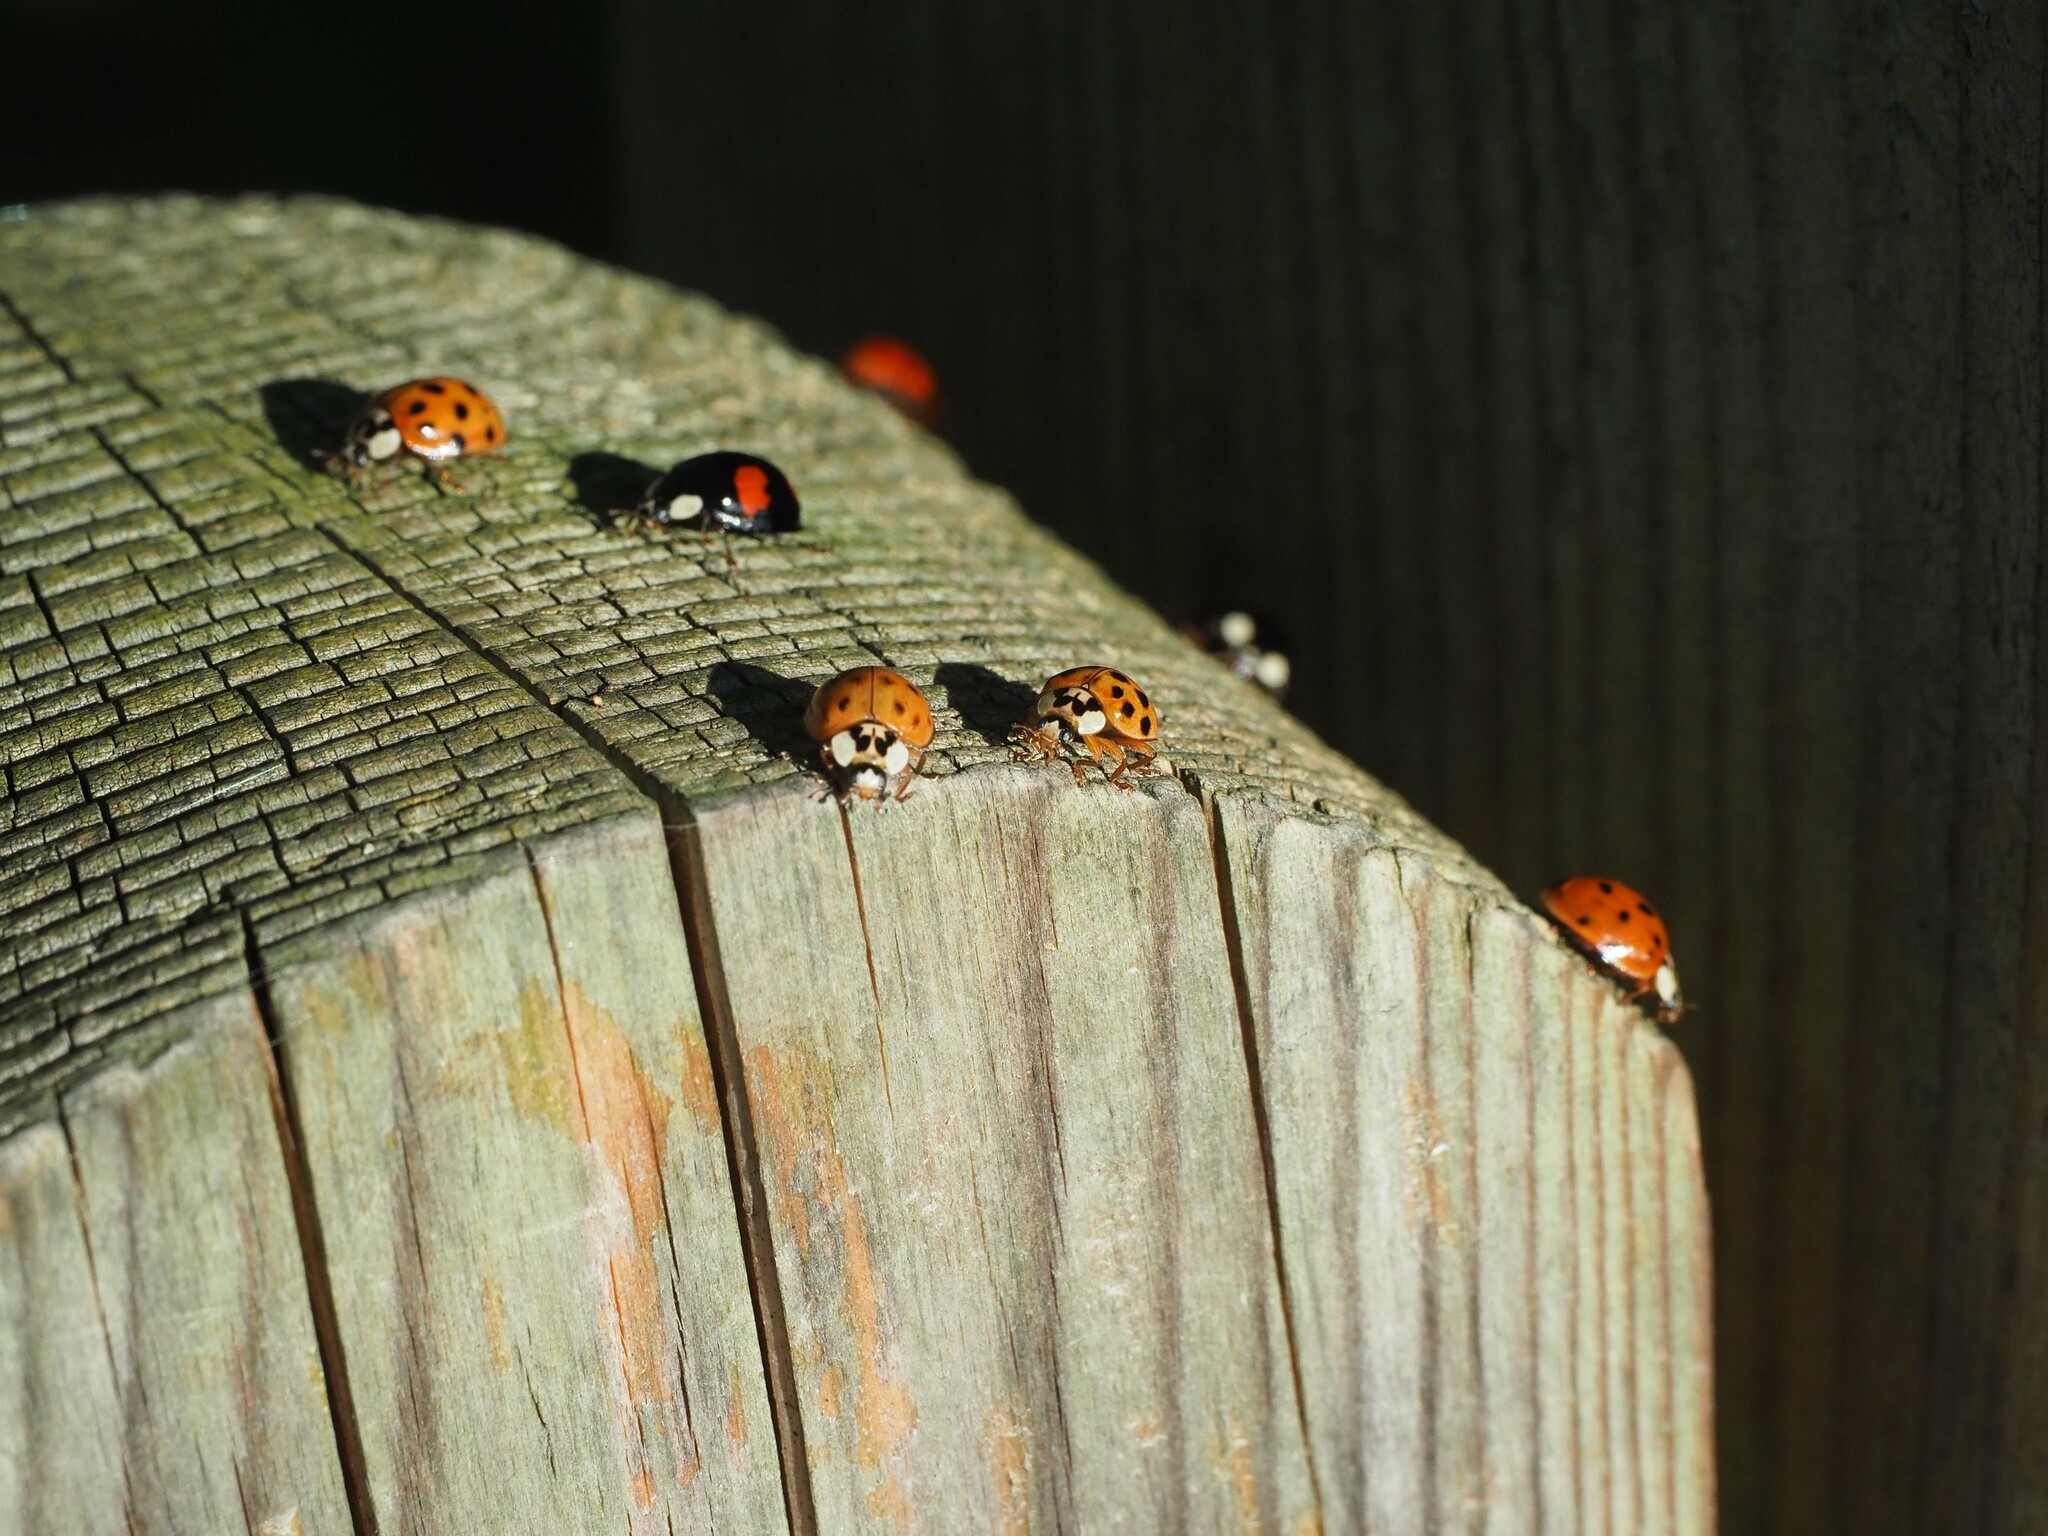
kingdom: Animalia
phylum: Arthropoda
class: Insecta
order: Coleoptera
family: Coccinellidae
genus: Harmonia
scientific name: Harmonia axyridis
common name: Harlequin ladybird
